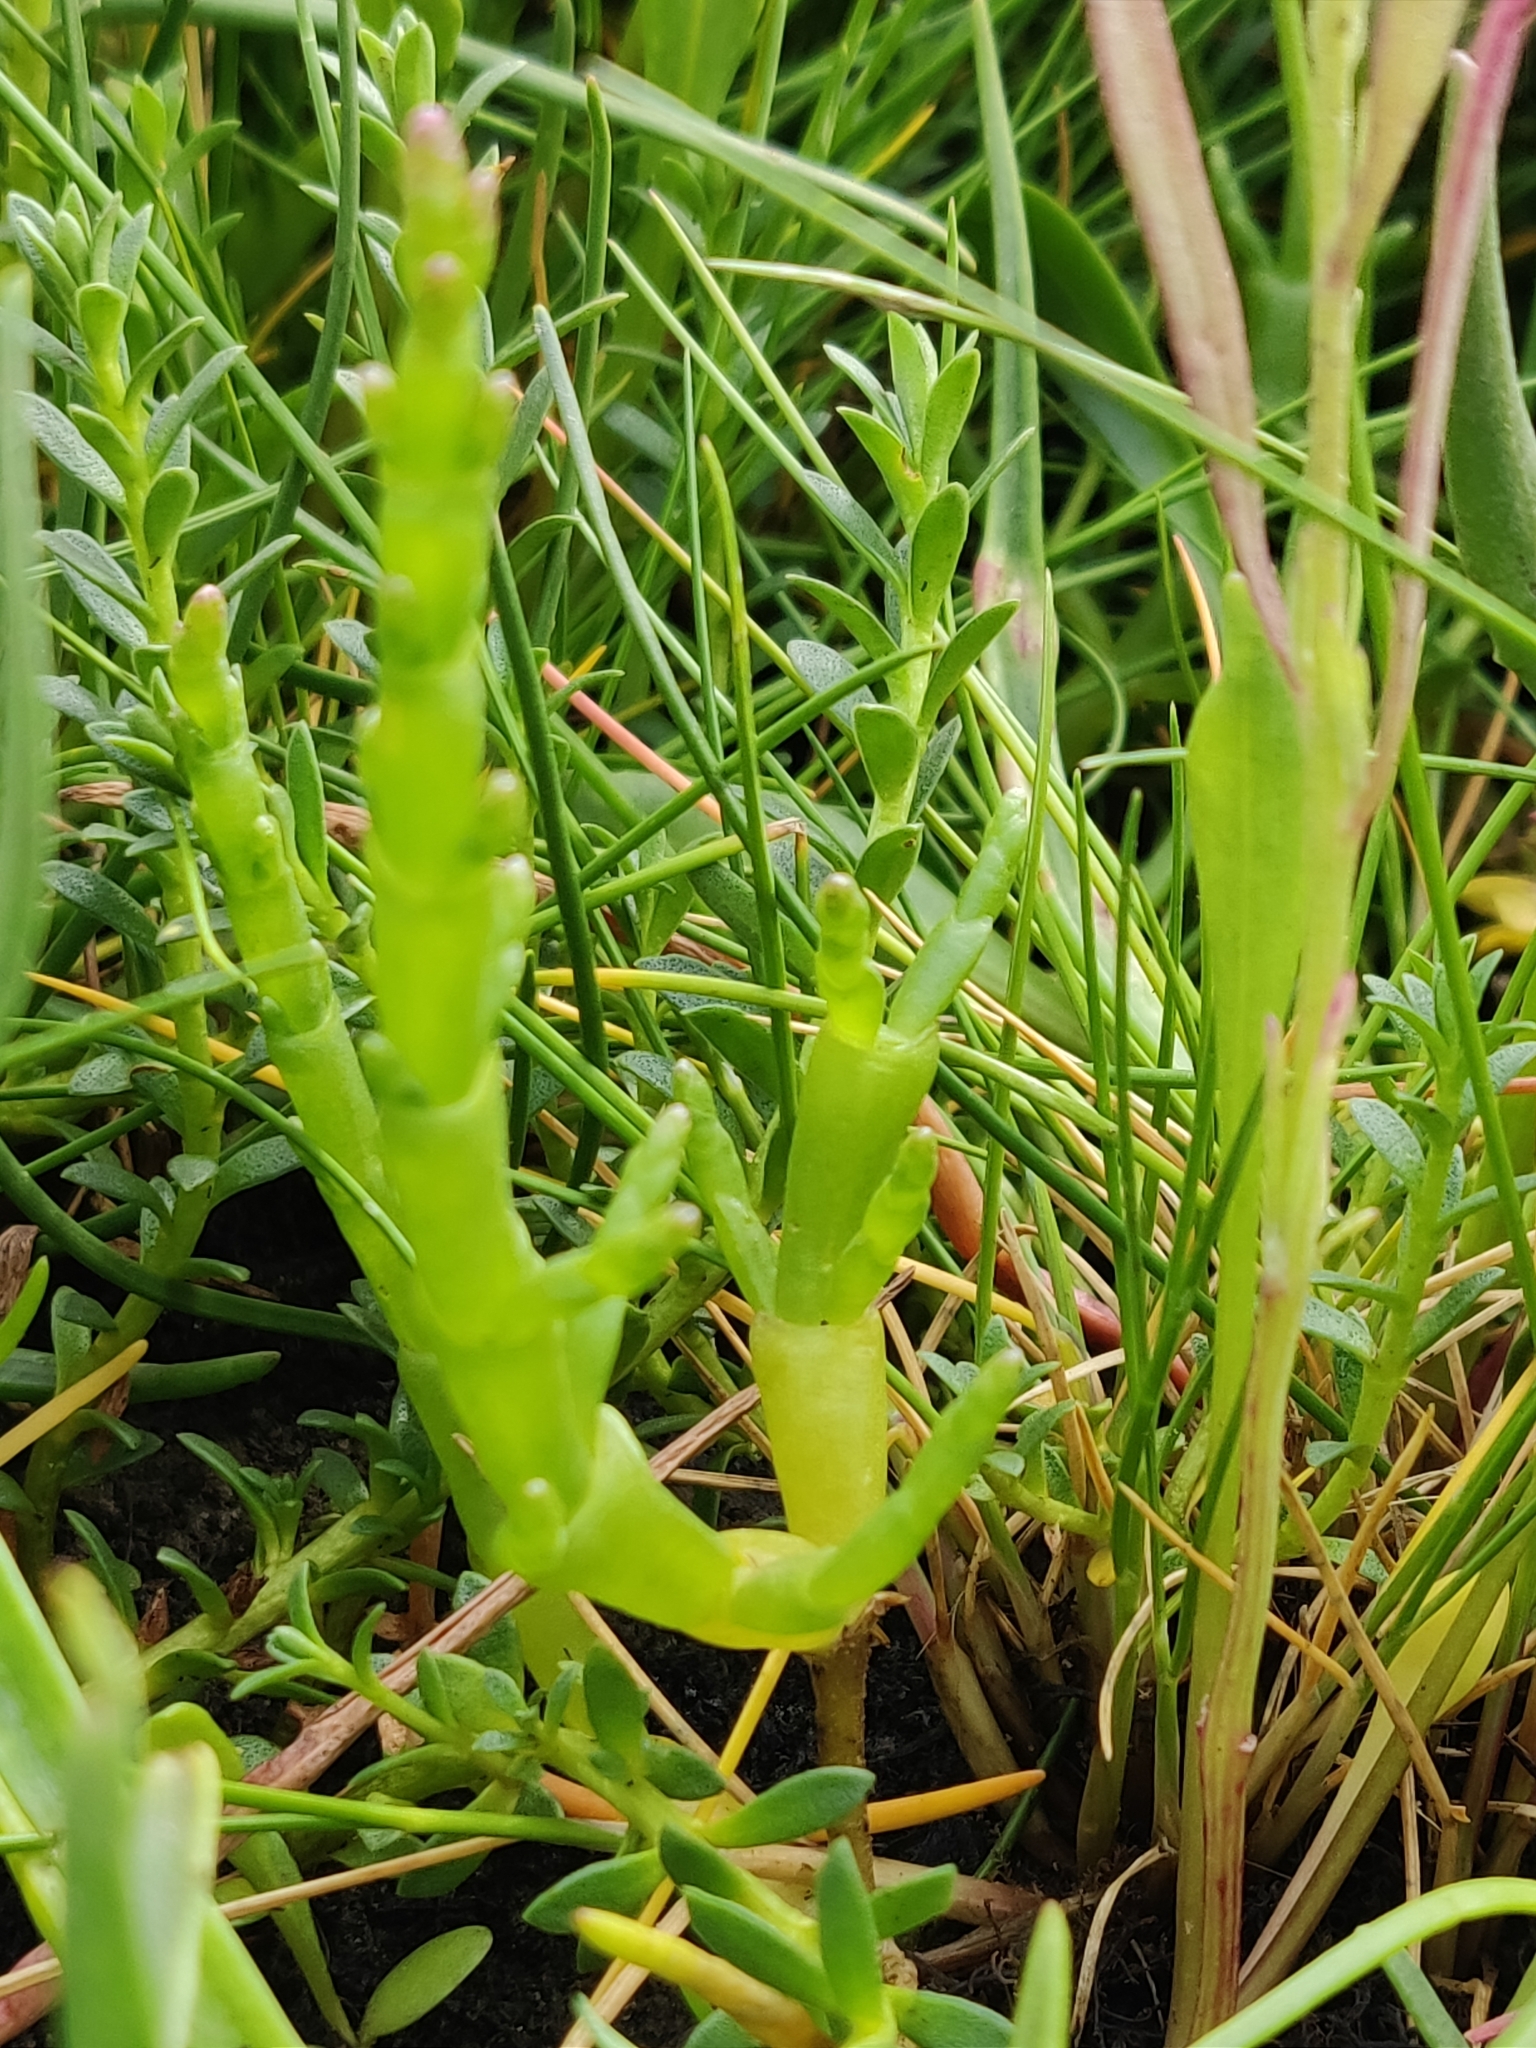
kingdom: Plantae
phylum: Tracheophyta
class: Magnoliopsida
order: Caryophyllales
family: Amaranthaceae
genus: Salicornia
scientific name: Salicornia perennis
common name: Chicken claws
